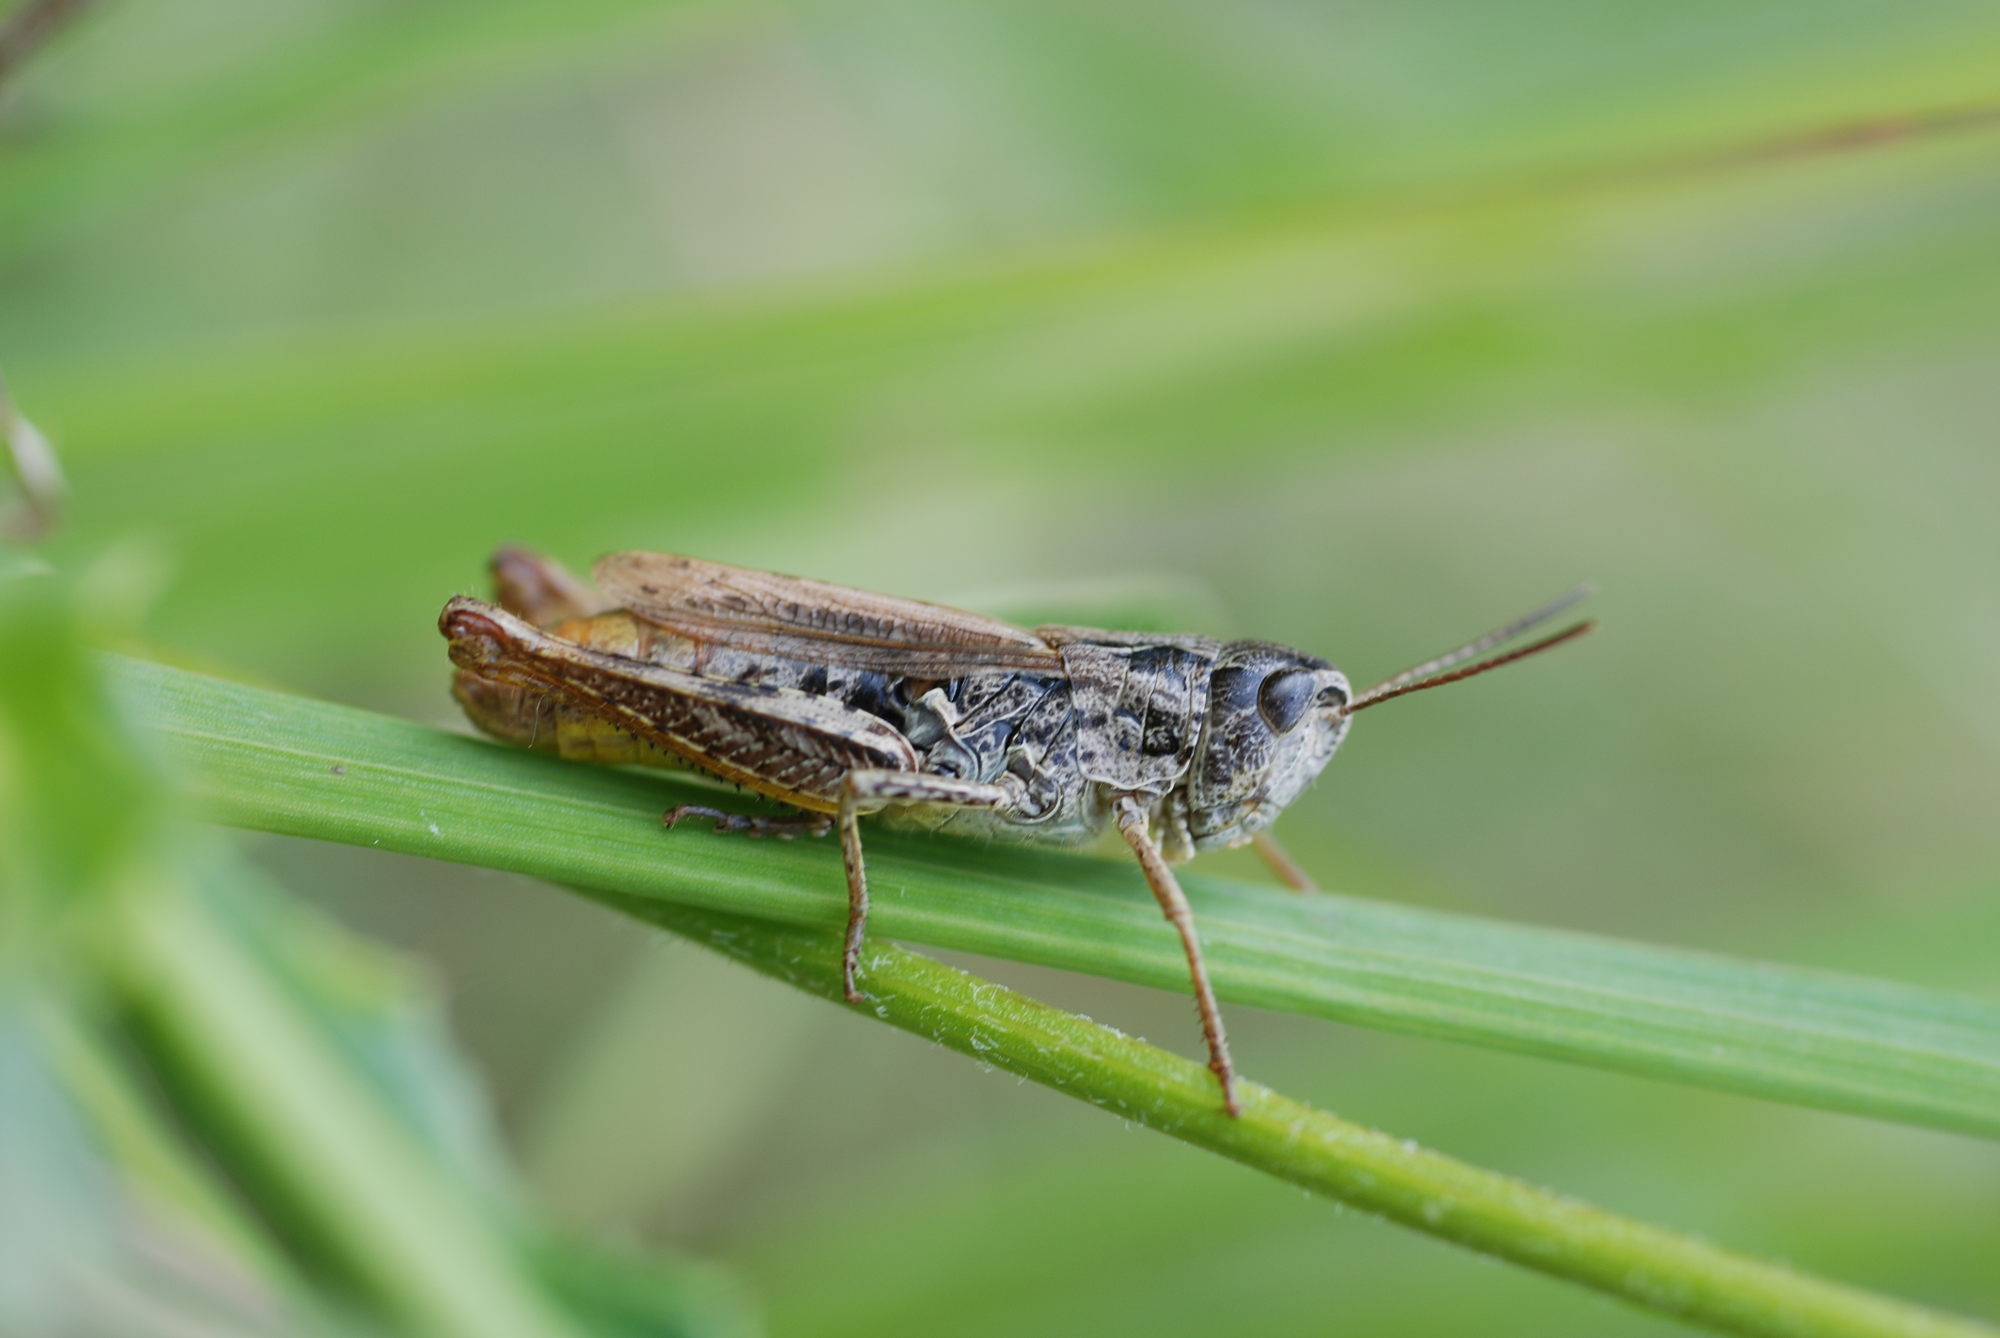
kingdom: Animalia
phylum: Arthropoda
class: Insecta
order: Orthoptera
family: Acrididae
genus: Chorthippus
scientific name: Chorthippus apricarius
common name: Upland field grasshopper
